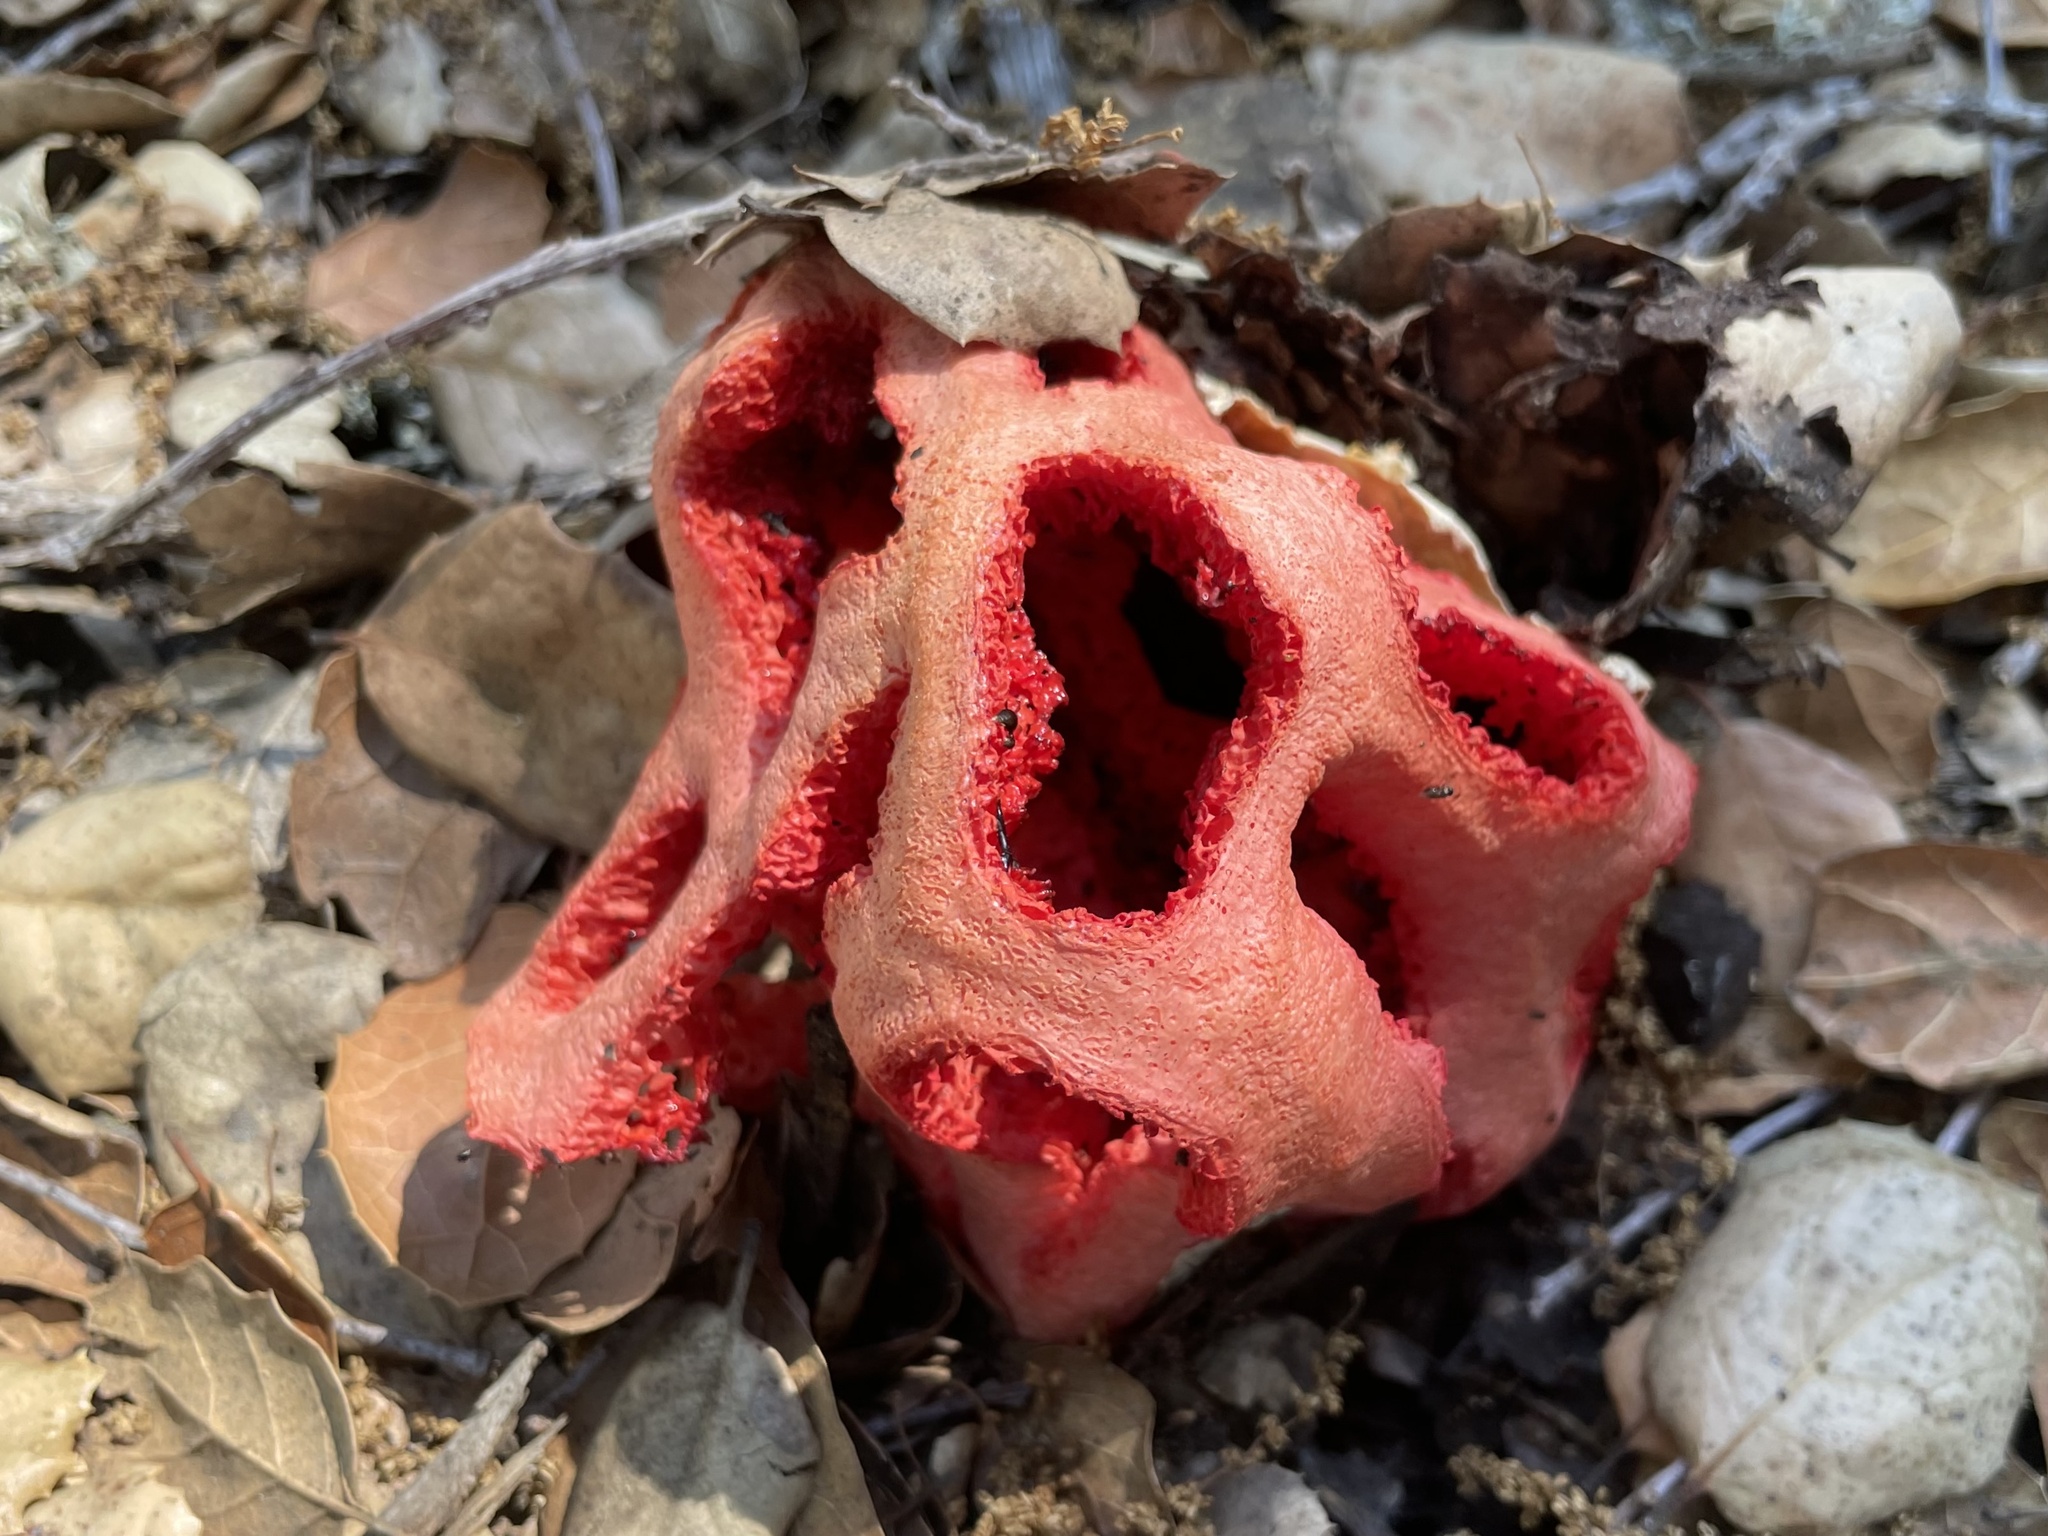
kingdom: Fungi
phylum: Basidiomycota
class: Agaricomycetes
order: Phallales
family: Phallaceae
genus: Clathrus
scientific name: Clathrus ruber
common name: Red cage
